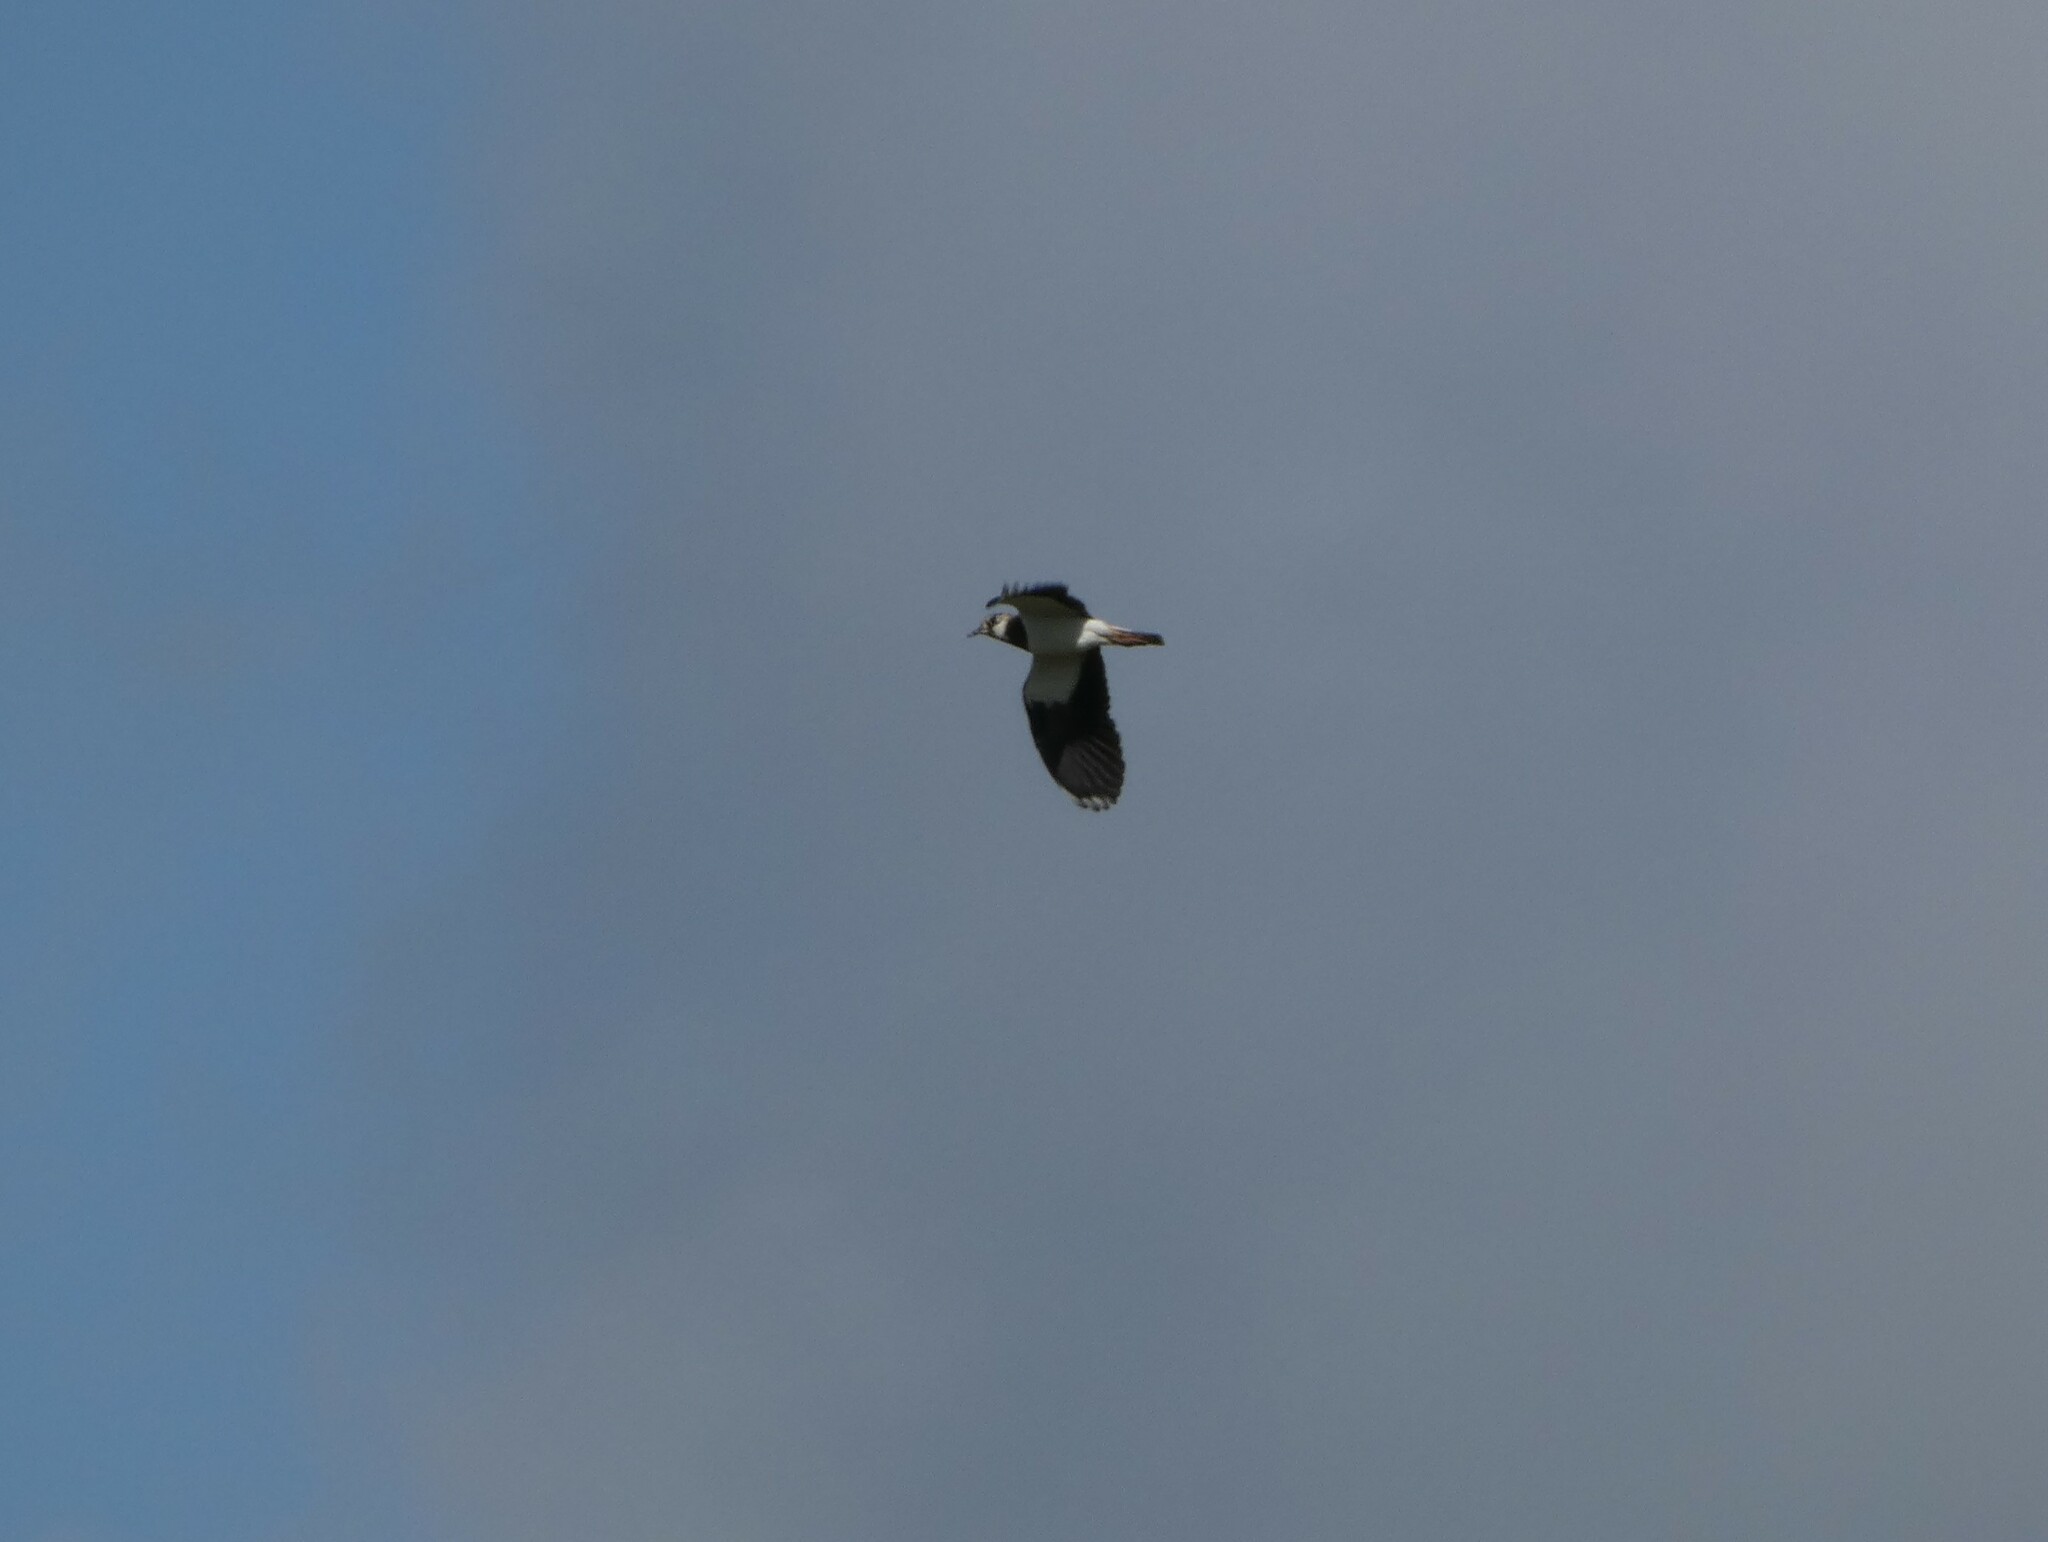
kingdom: Animalia
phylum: Chordata
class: Aves
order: Charadriiformes
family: Charadriidae
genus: Vanellus
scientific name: Vanellus vanellus
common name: Northern lapwing
